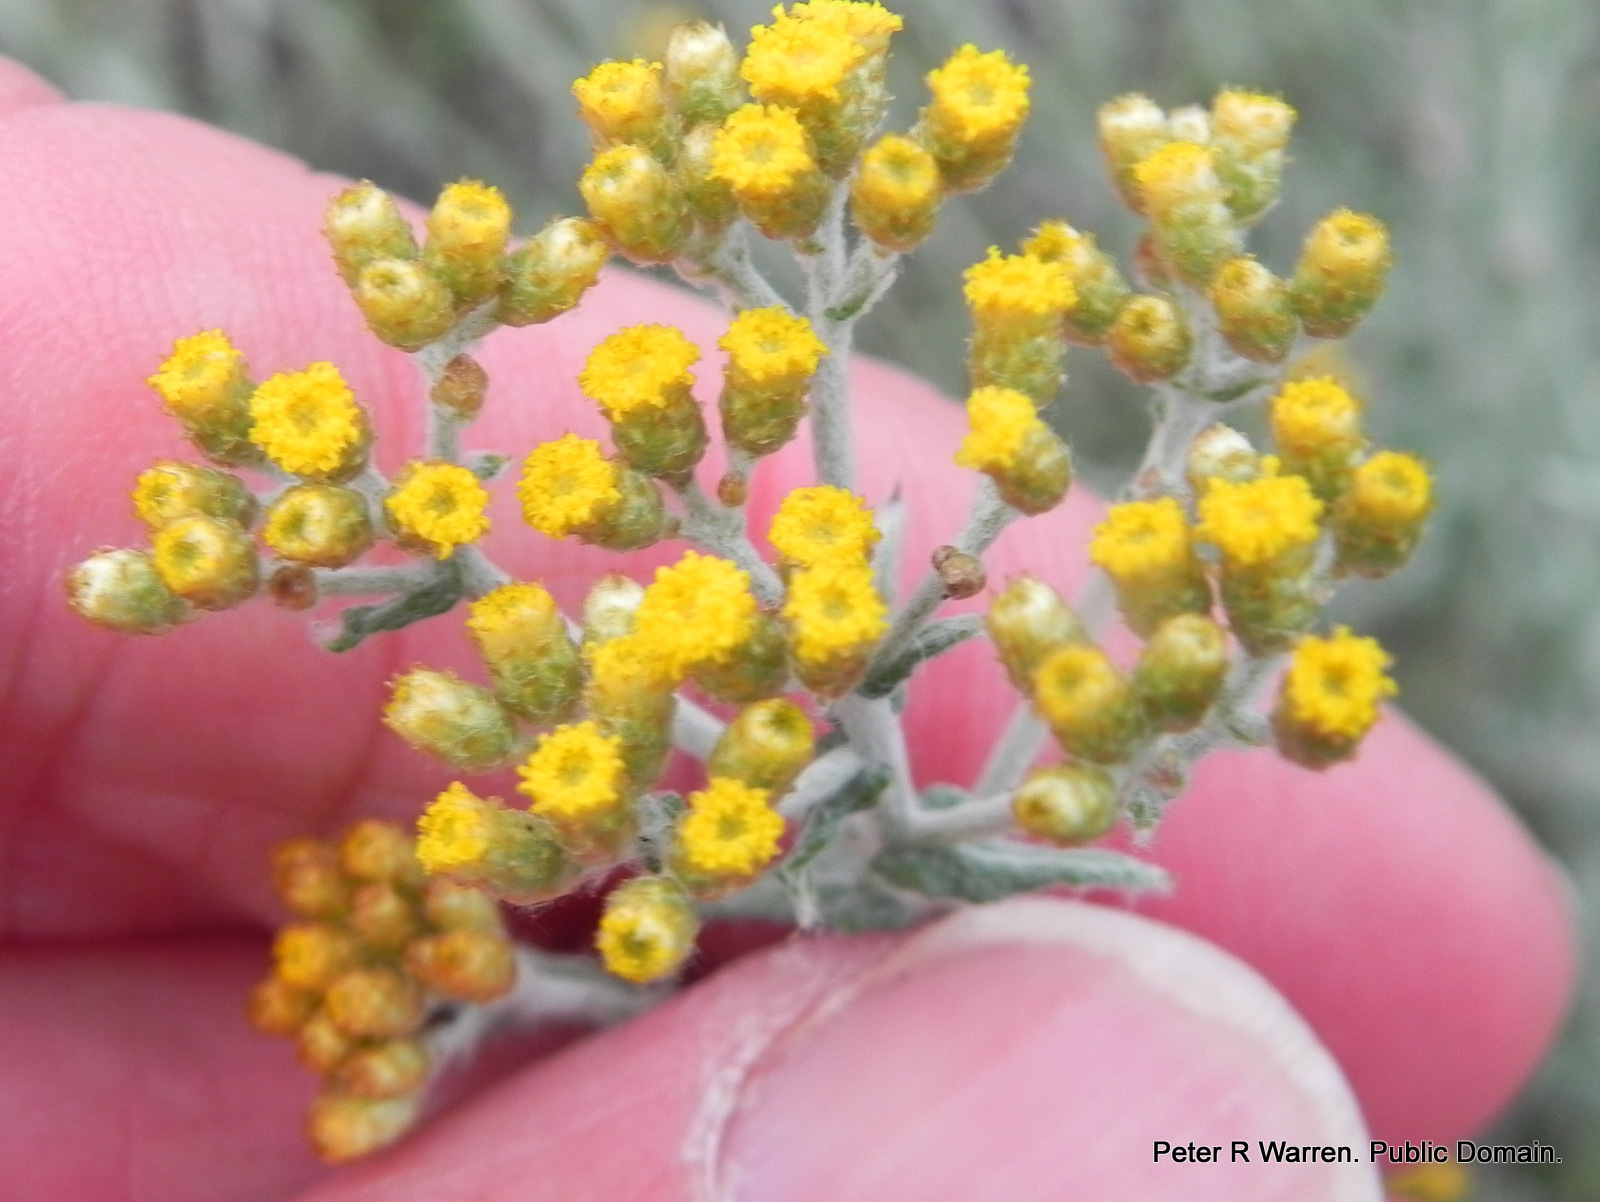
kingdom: Plantae
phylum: Tracheophyta
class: Magnoliopsida
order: Asterales
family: Asteraceae
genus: Helichrysum
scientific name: Helichrysum cymosum
